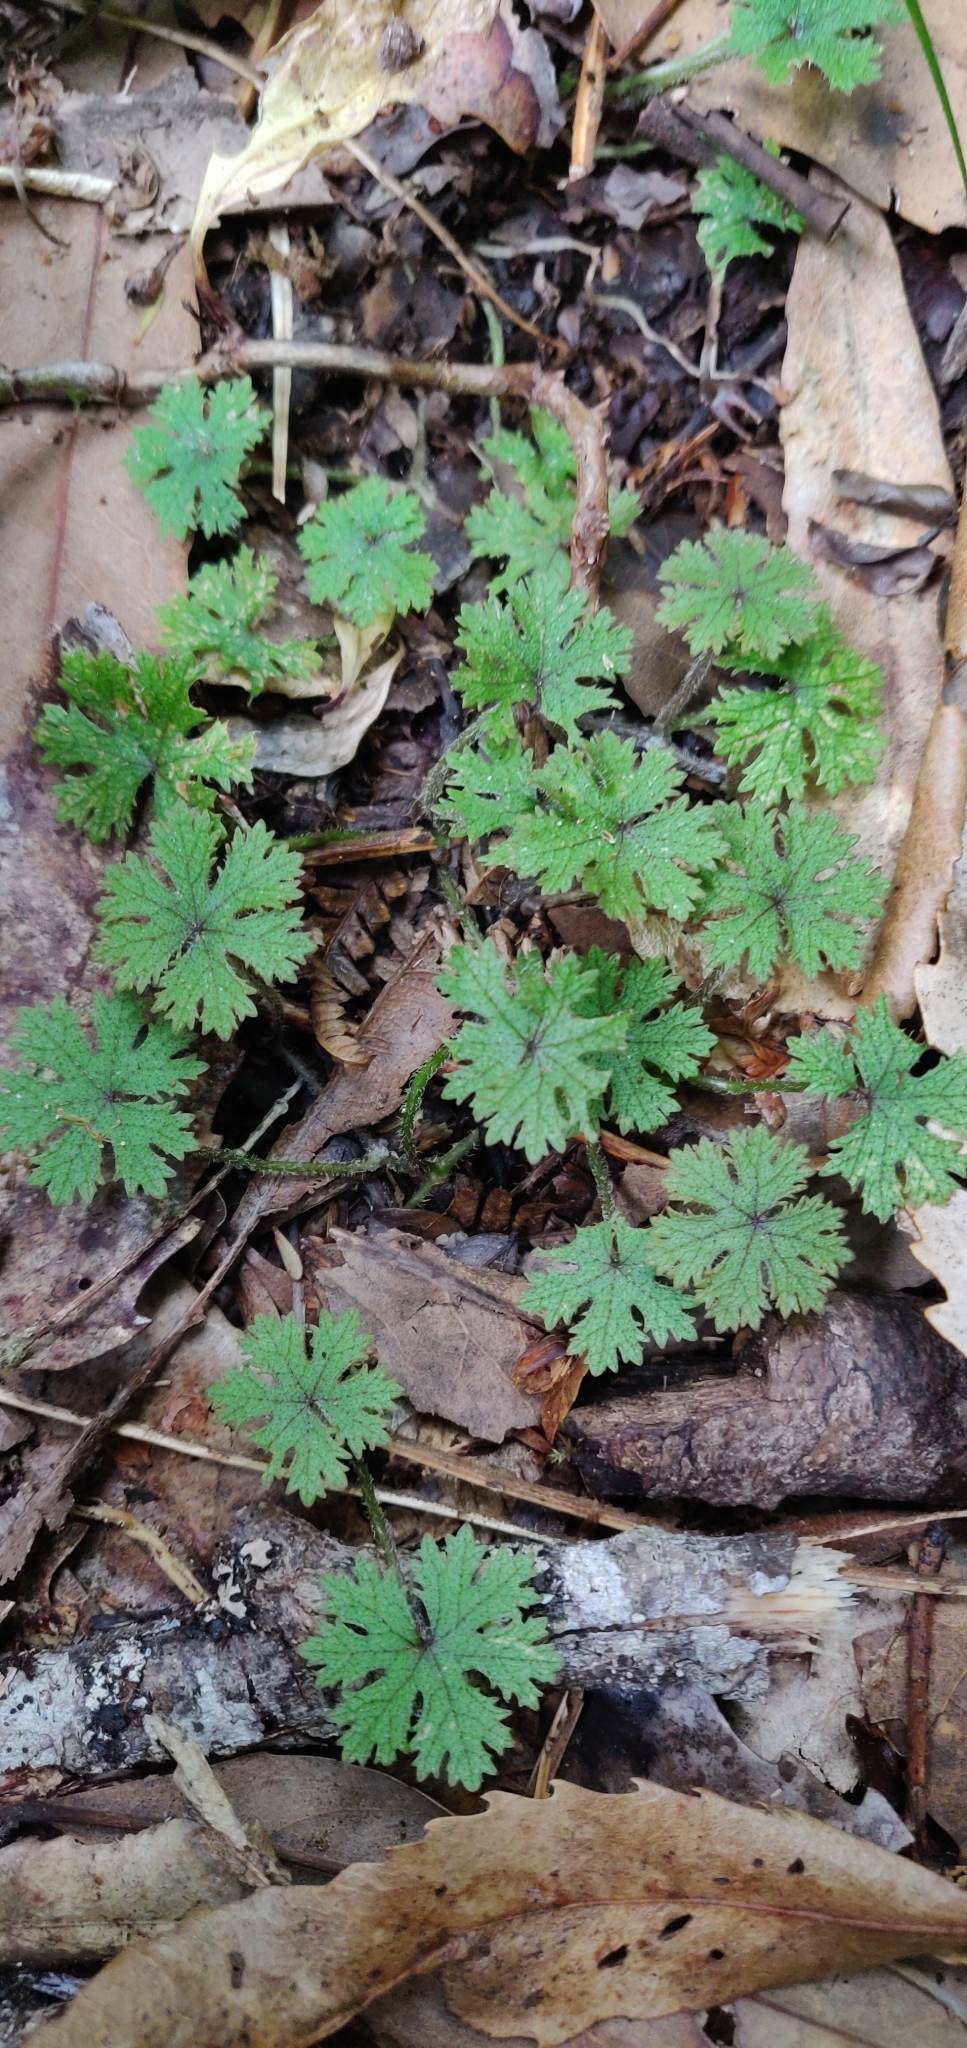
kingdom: Plantae
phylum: Tracheophyta
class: Magnoliopsida
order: Apiales
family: Araliaceae
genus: Hydrocotyle
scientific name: Hydrocotyle dissecta
